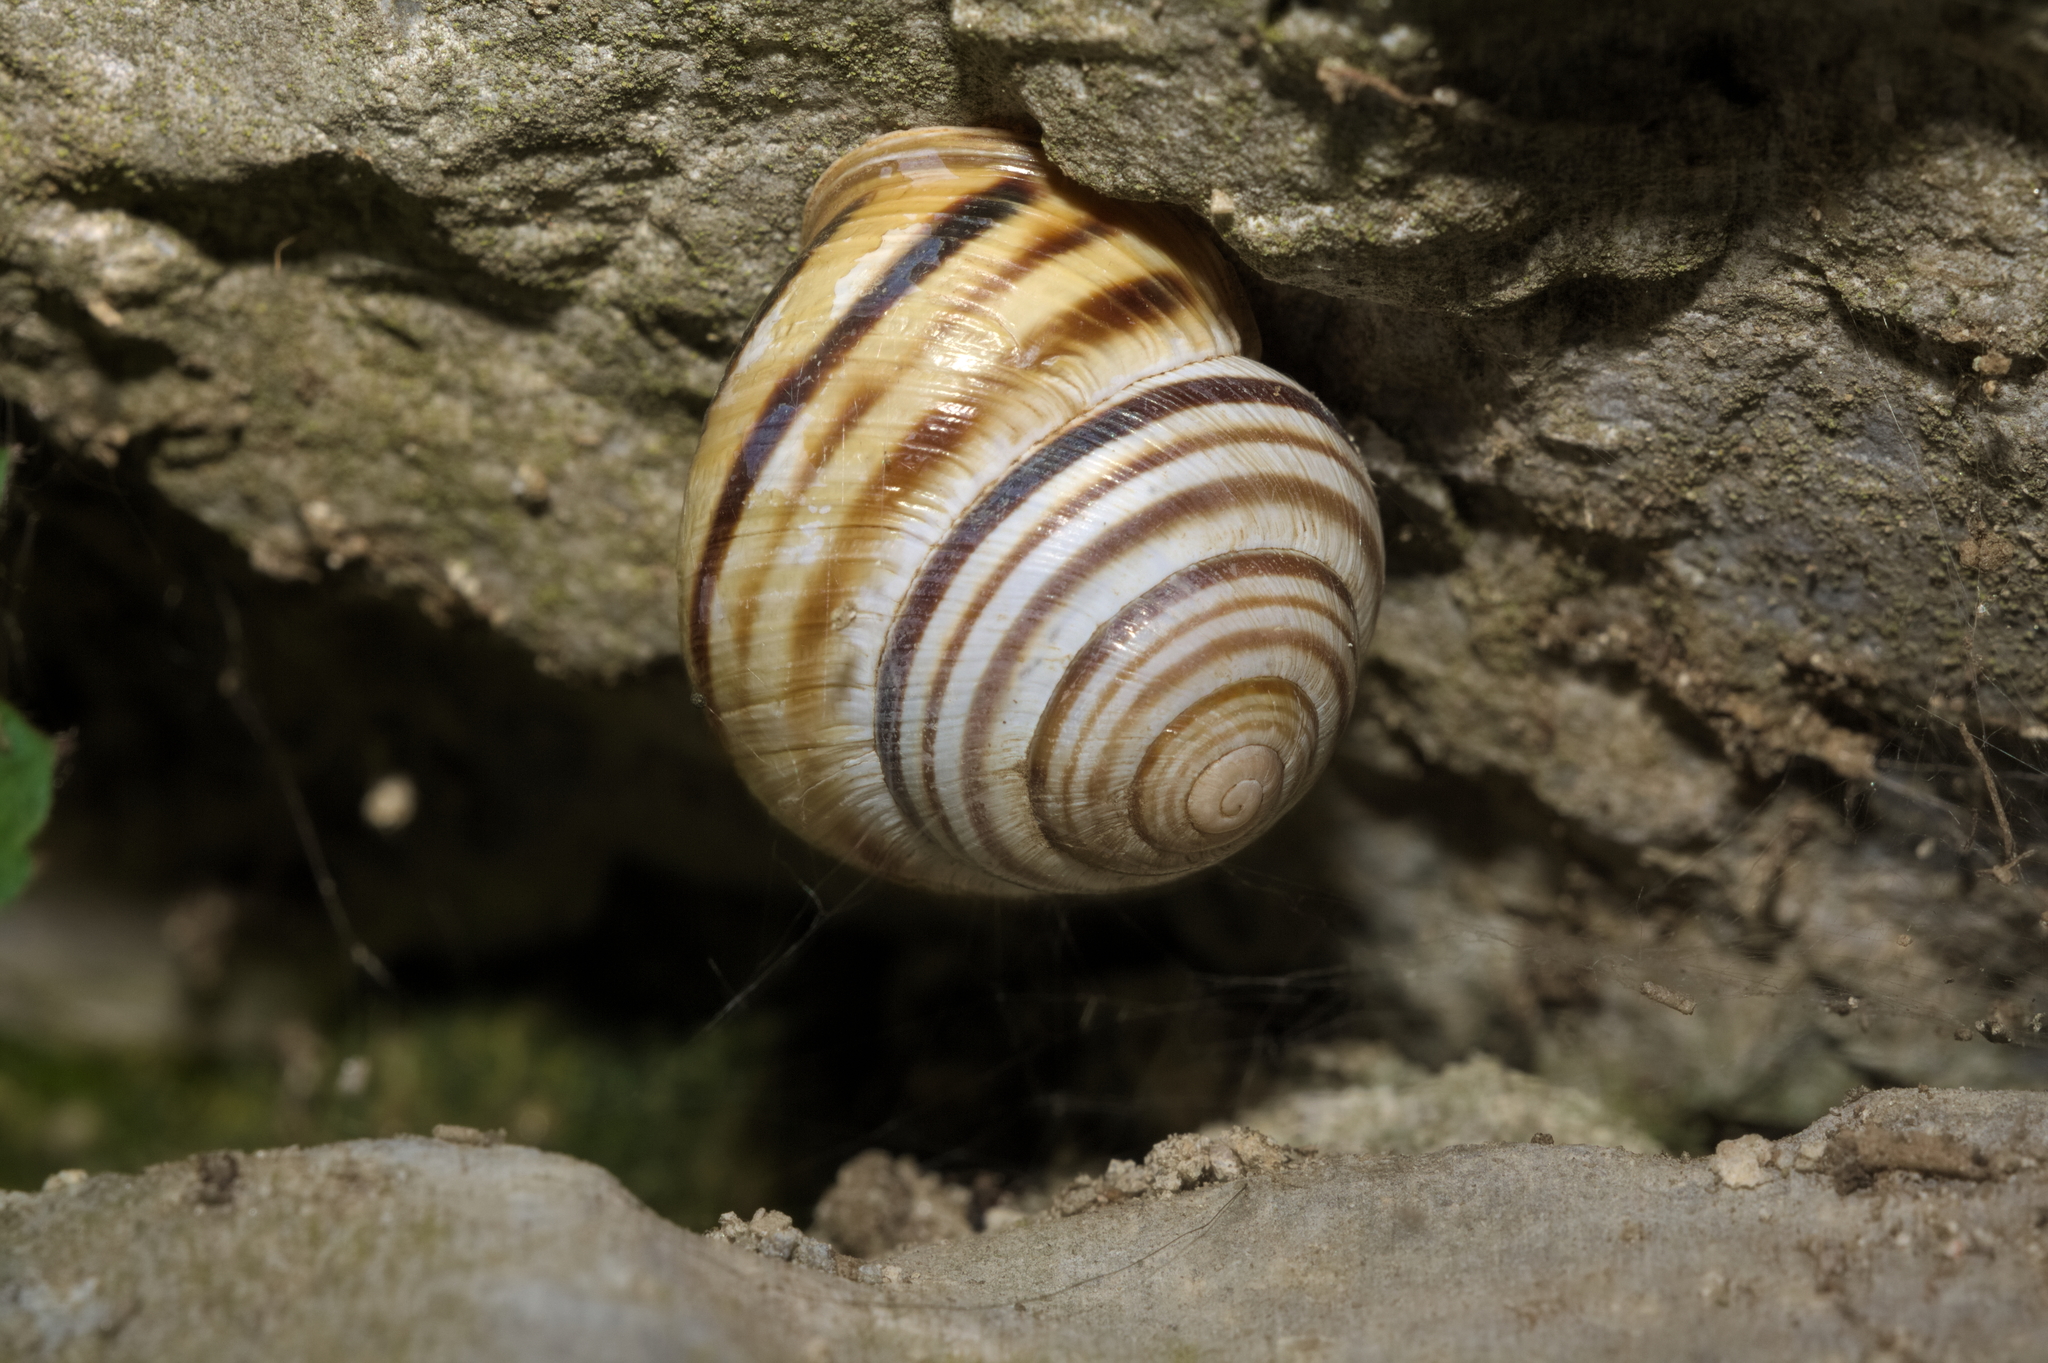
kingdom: Animalia
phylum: Mollusca
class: Gastropoda
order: Stylommatophora
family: Helicidae
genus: Caucasotachea
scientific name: Caucasotachea vindobonensis
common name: European helicid land snail
